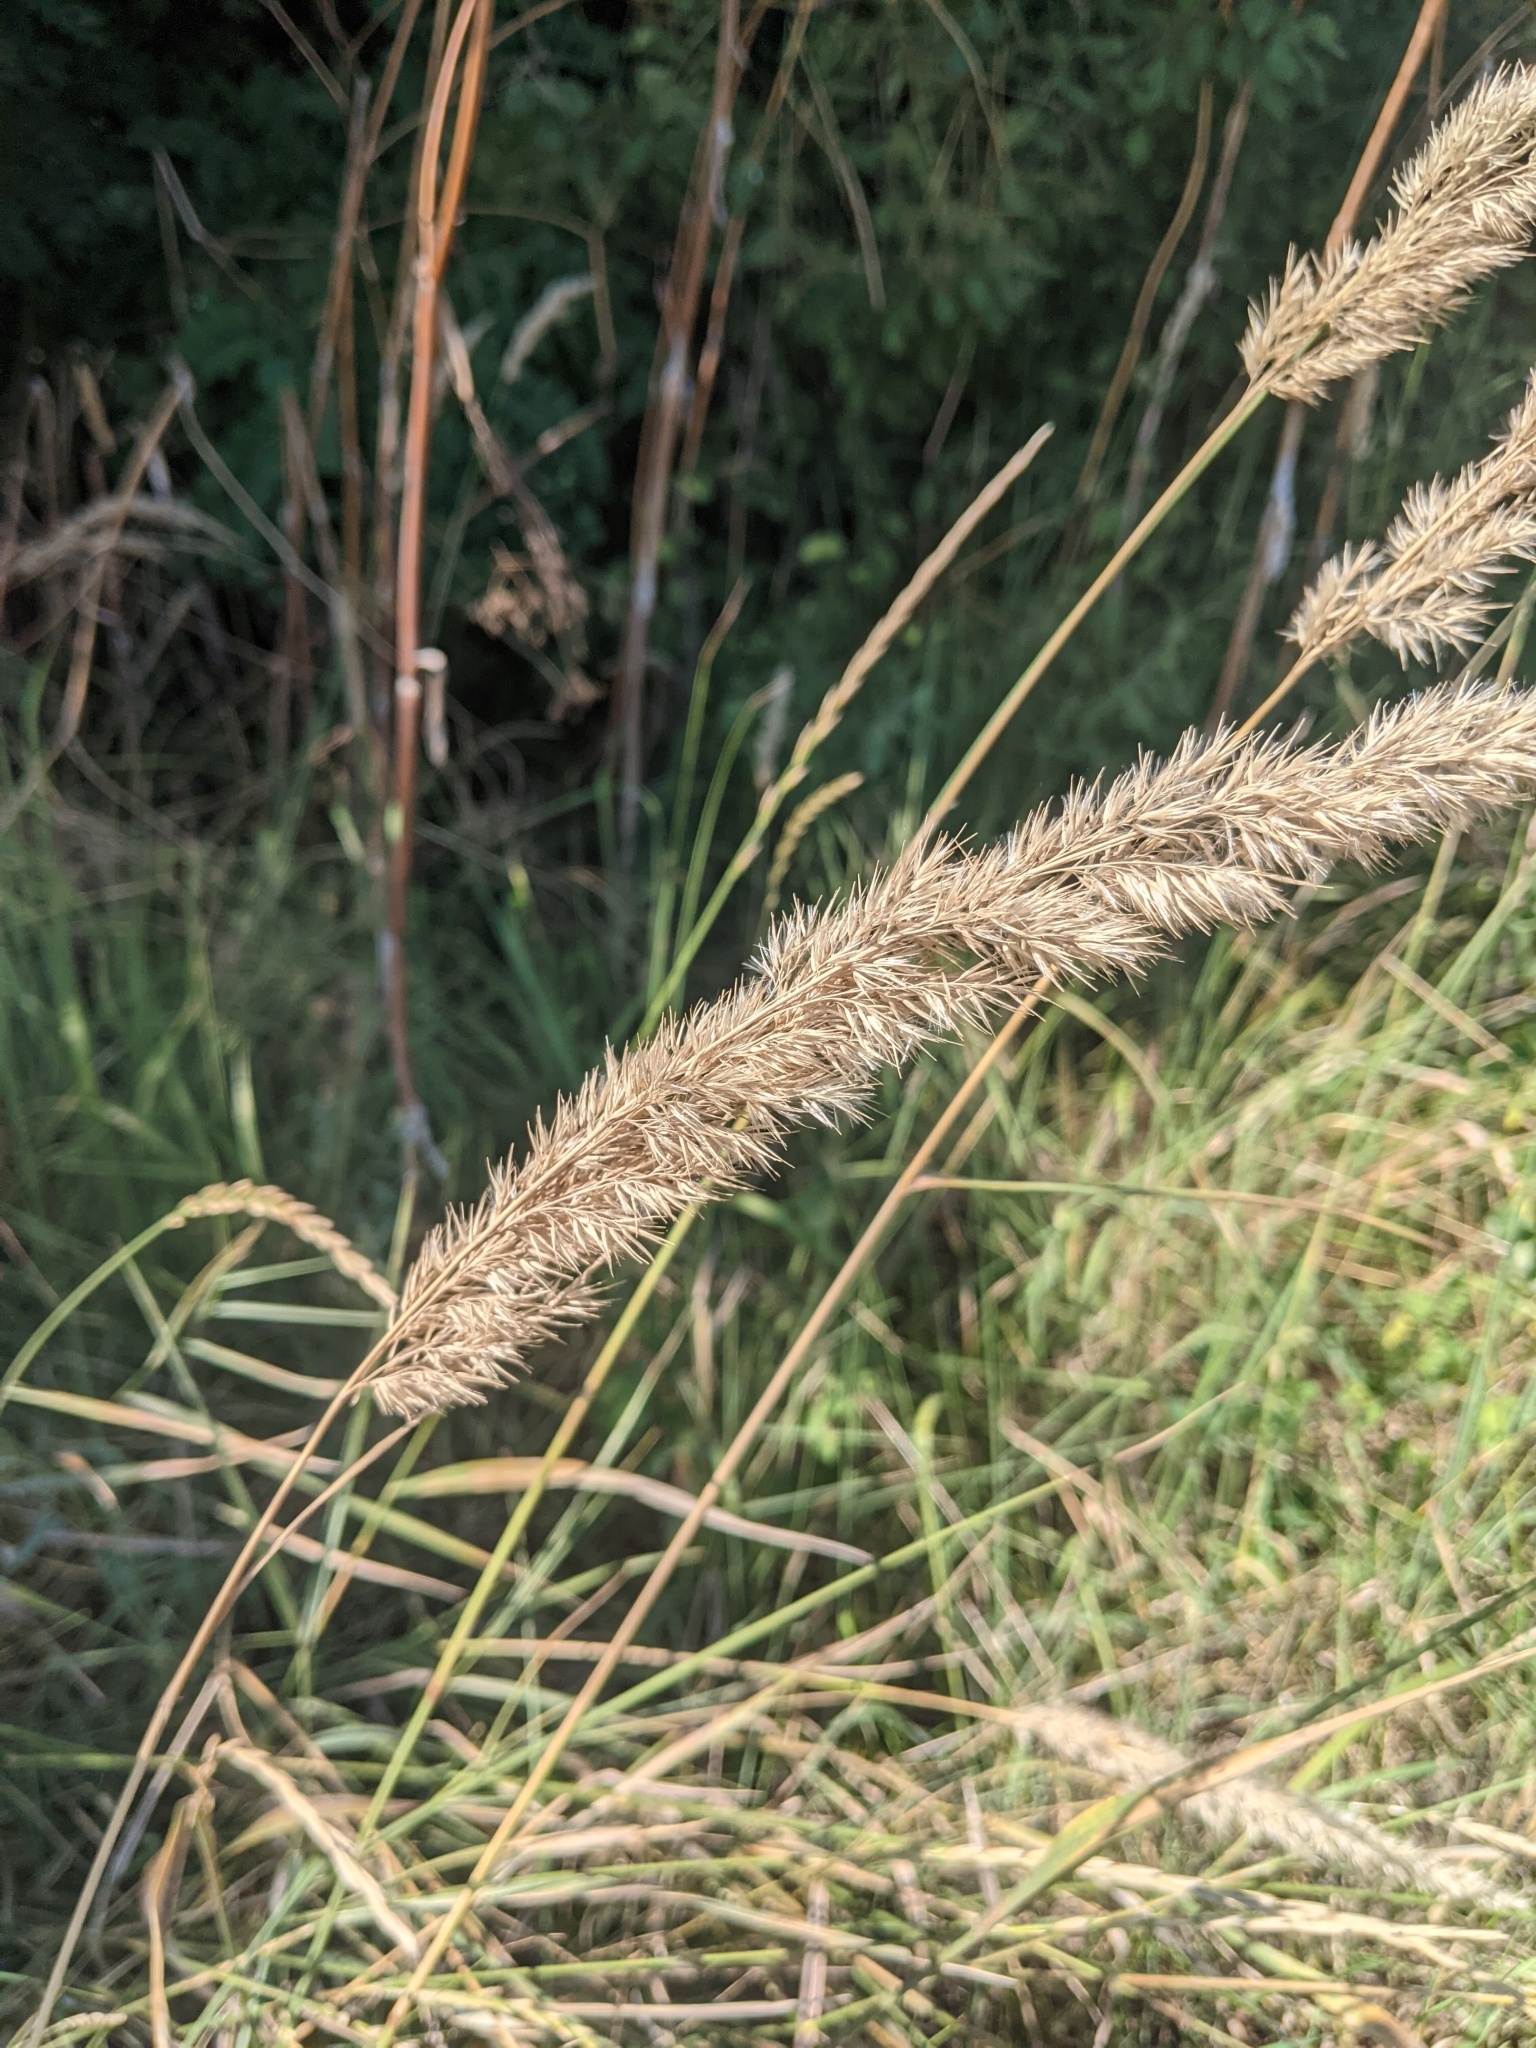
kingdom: Plantae
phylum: Tracheophyta
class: Liliopsida
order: Poales
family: Poaceae
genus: Calamagrostis
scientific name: Calamagrostis epigejos
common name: Wood small-reed
